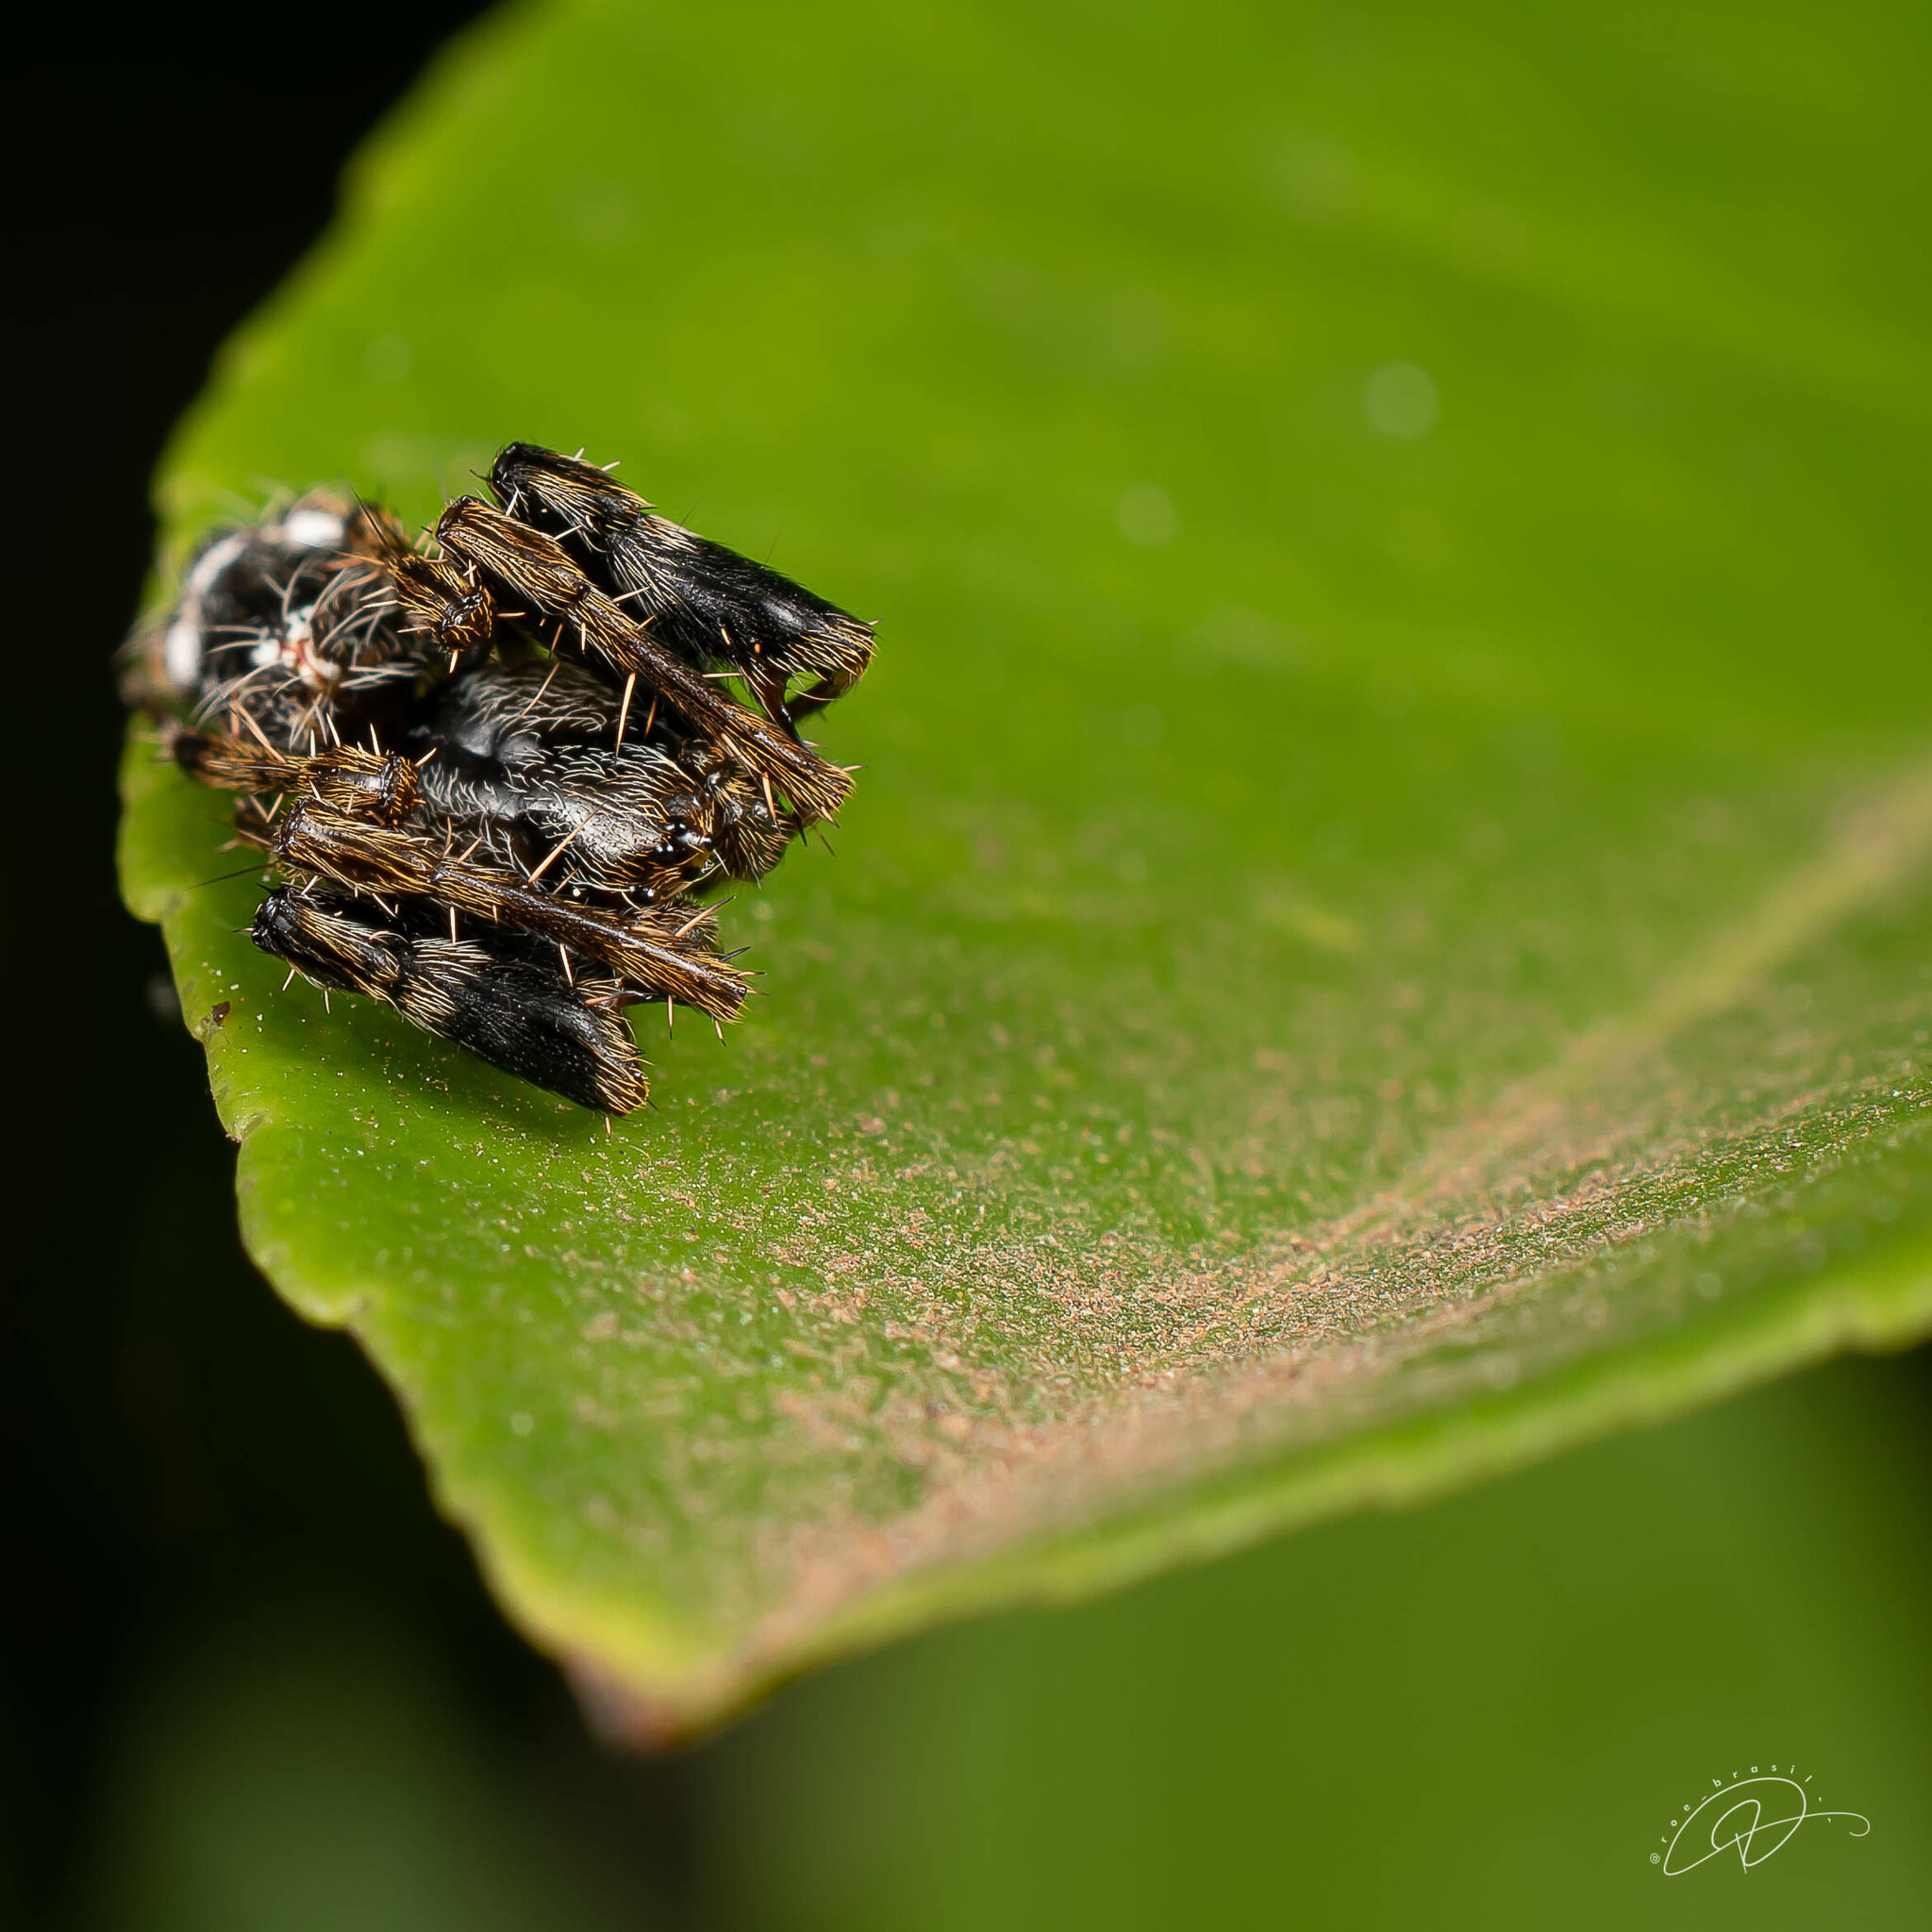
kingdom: Animalia
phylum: Arthropoda
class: Arachnida
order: Araneae
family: Araneidae
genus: Alpaida
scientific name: Alpaida truncata
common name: Orb weavers
